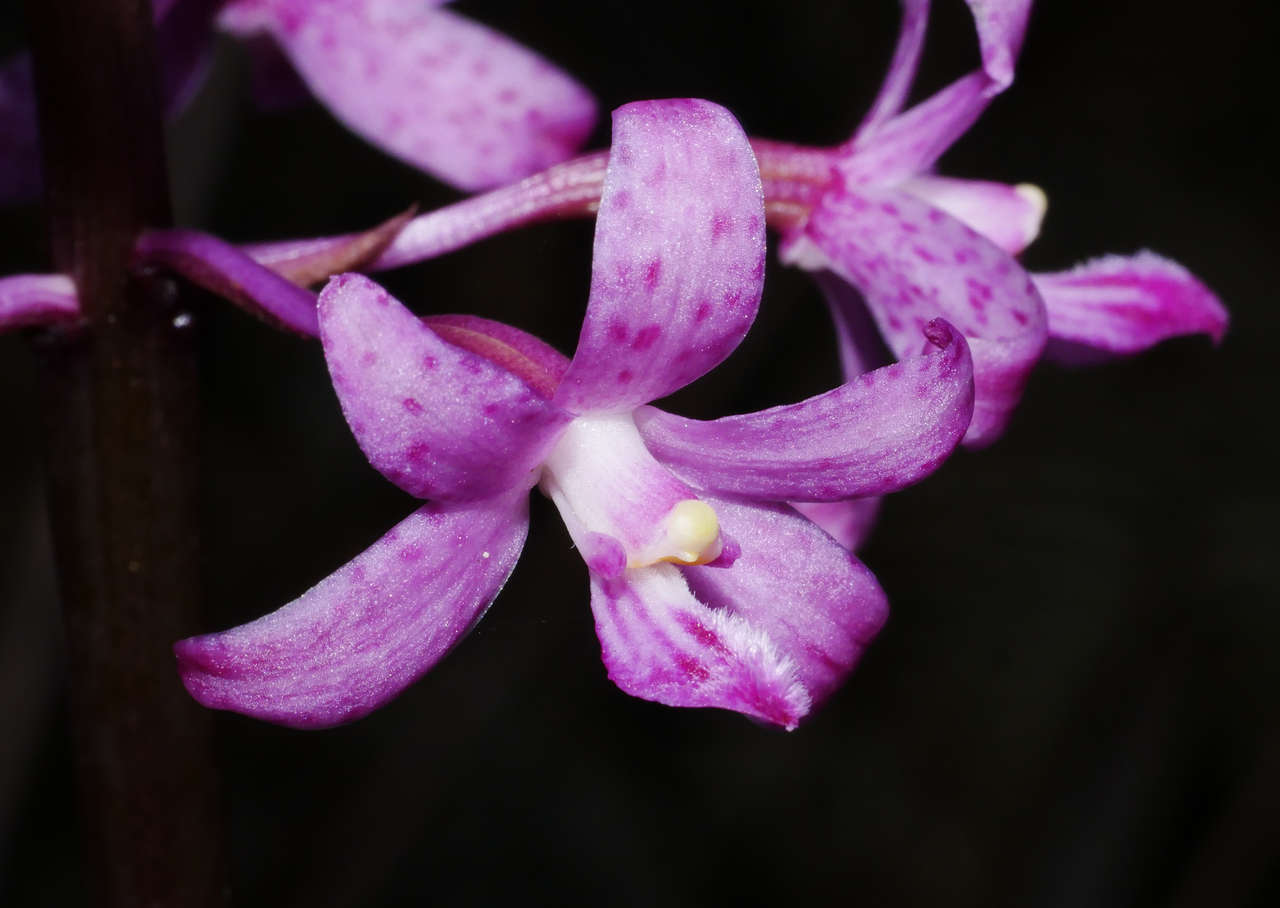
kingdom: Plantae
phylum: Tracheophyta
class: Liliopsida
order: Asparagales
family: Orchidaceae
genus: Dipodium
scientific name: Dipodium roseum
